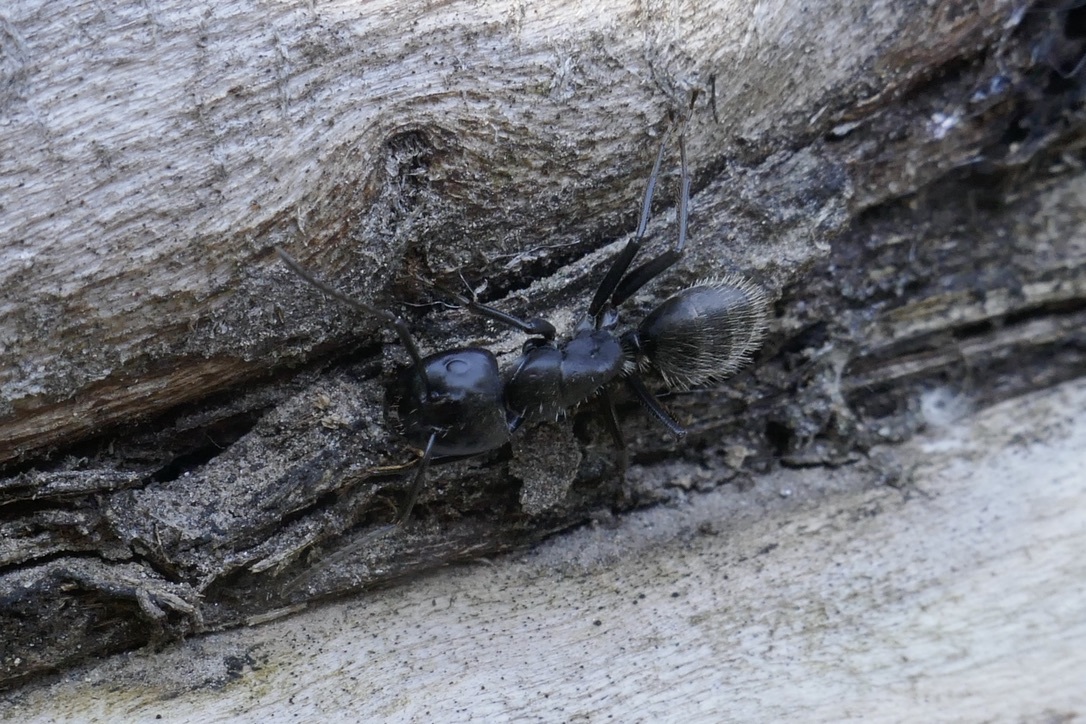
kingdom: Animalia
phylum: Arthropoda
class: Insecta
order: Hymenoptera
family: Formicidae
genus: Camponotus
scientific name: Camponotus vagus
